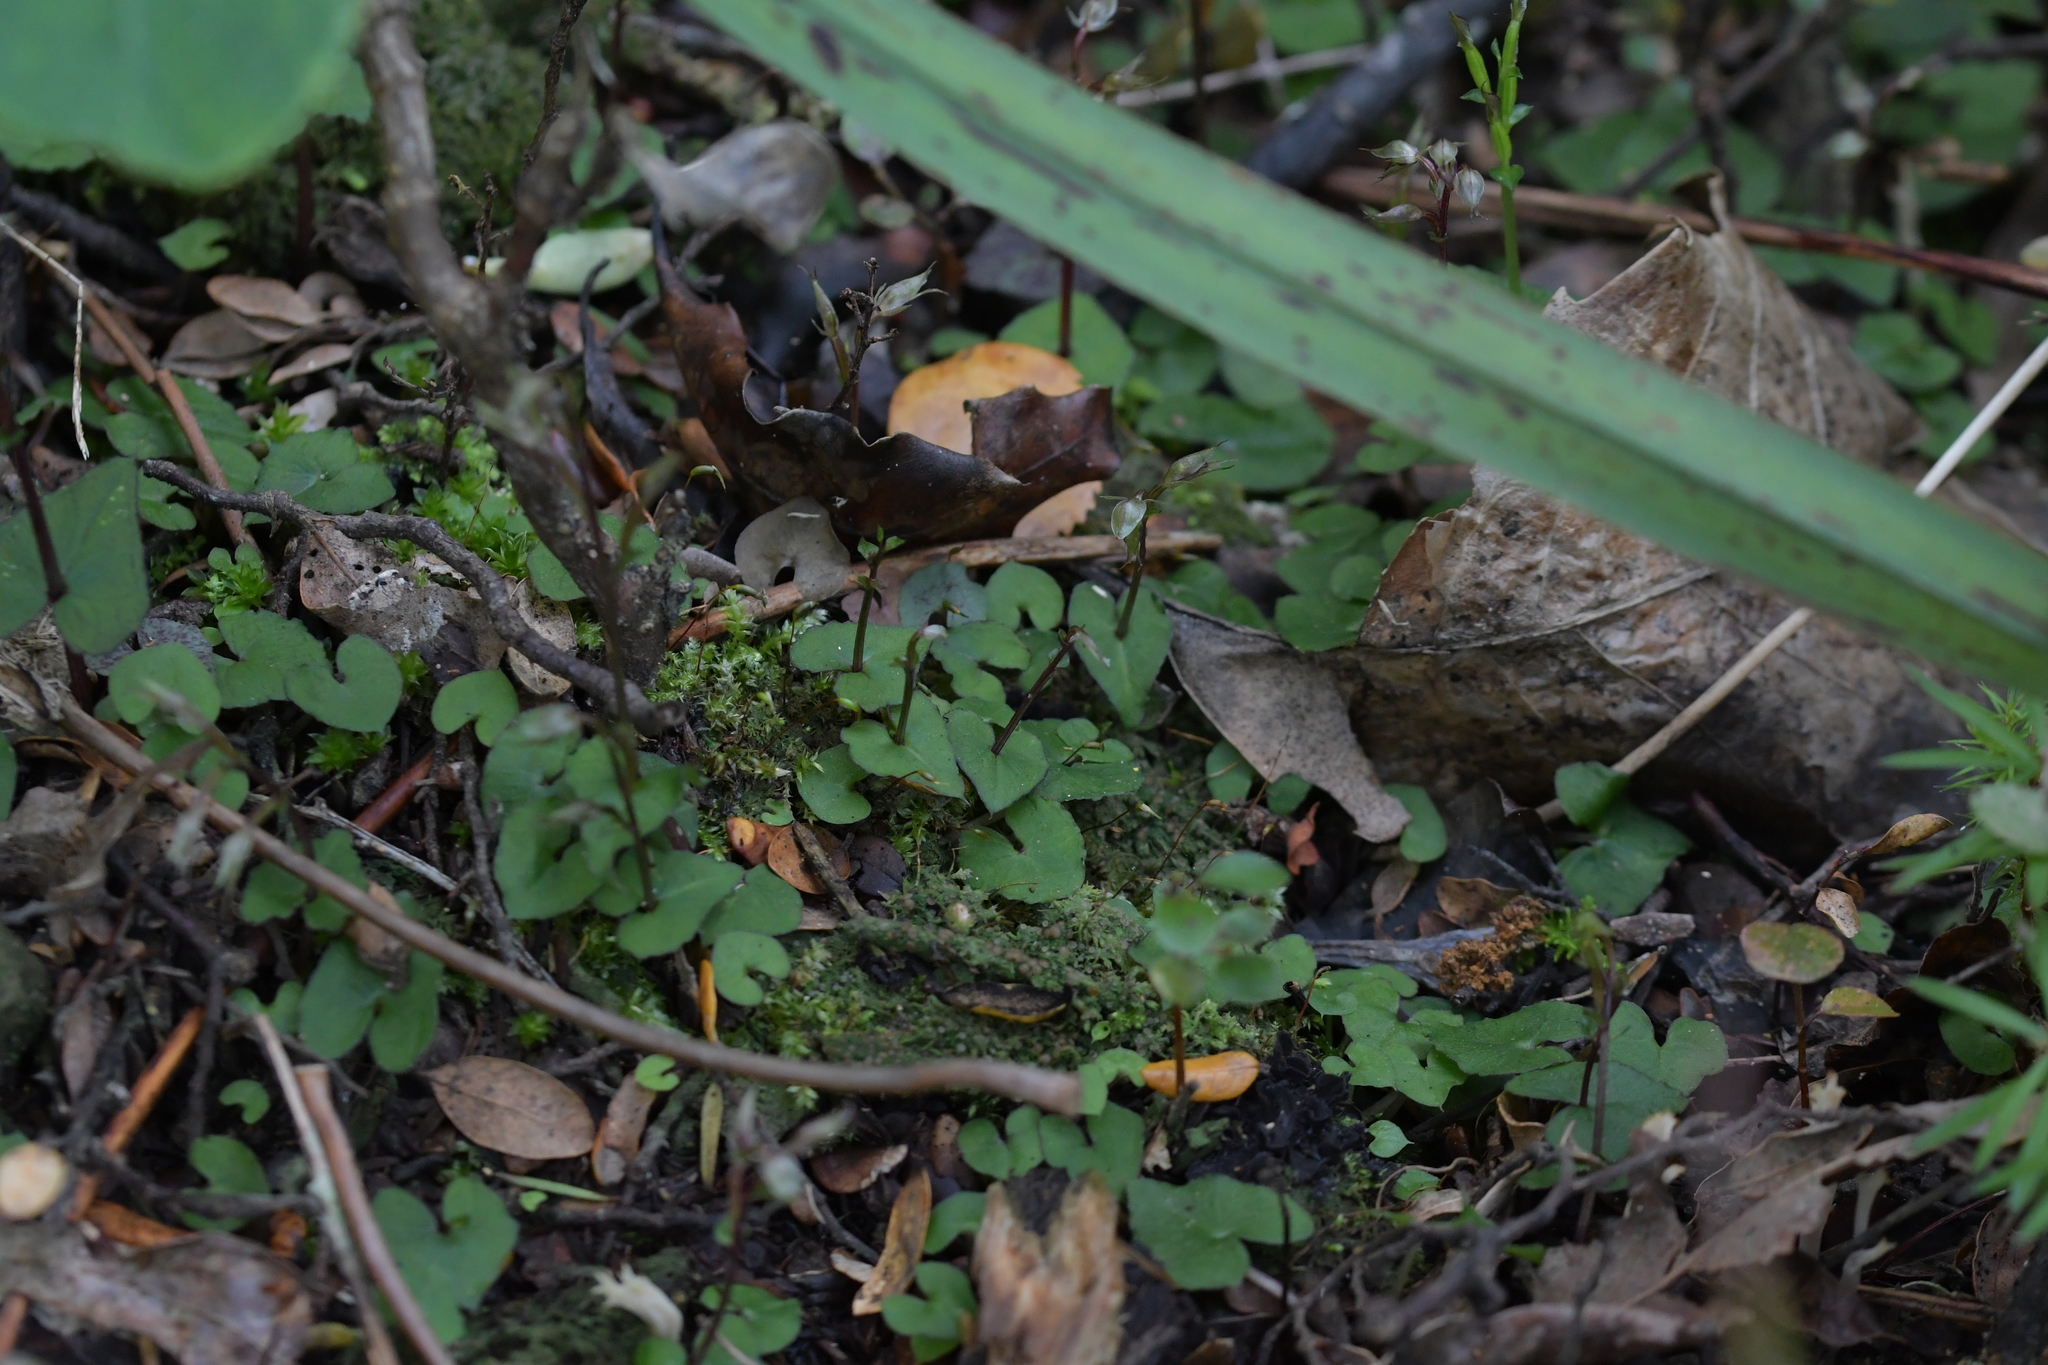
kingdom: Plantae
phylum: Tracheophyta
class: Liliopsida
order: Asparagales
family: Orchidaceae
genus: Acianthus
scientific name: Acianthus sinclairii
